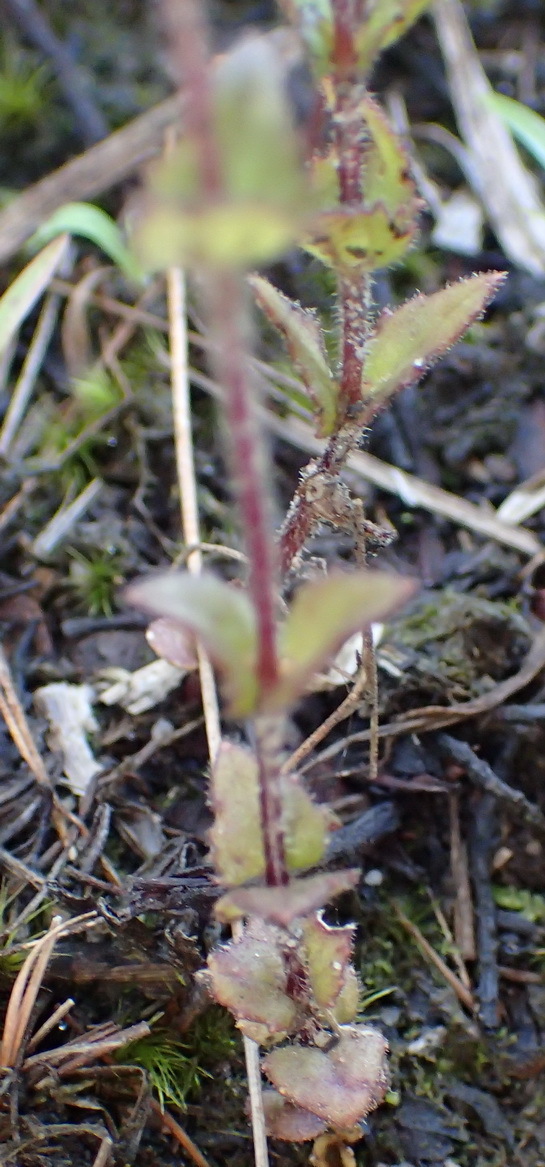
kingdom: Plantae
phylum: Tracheophyta
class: Magnoliopsida
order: Lamiales
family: Orobanchaceae
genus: Alectra
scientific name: Alectra sessiliflora
